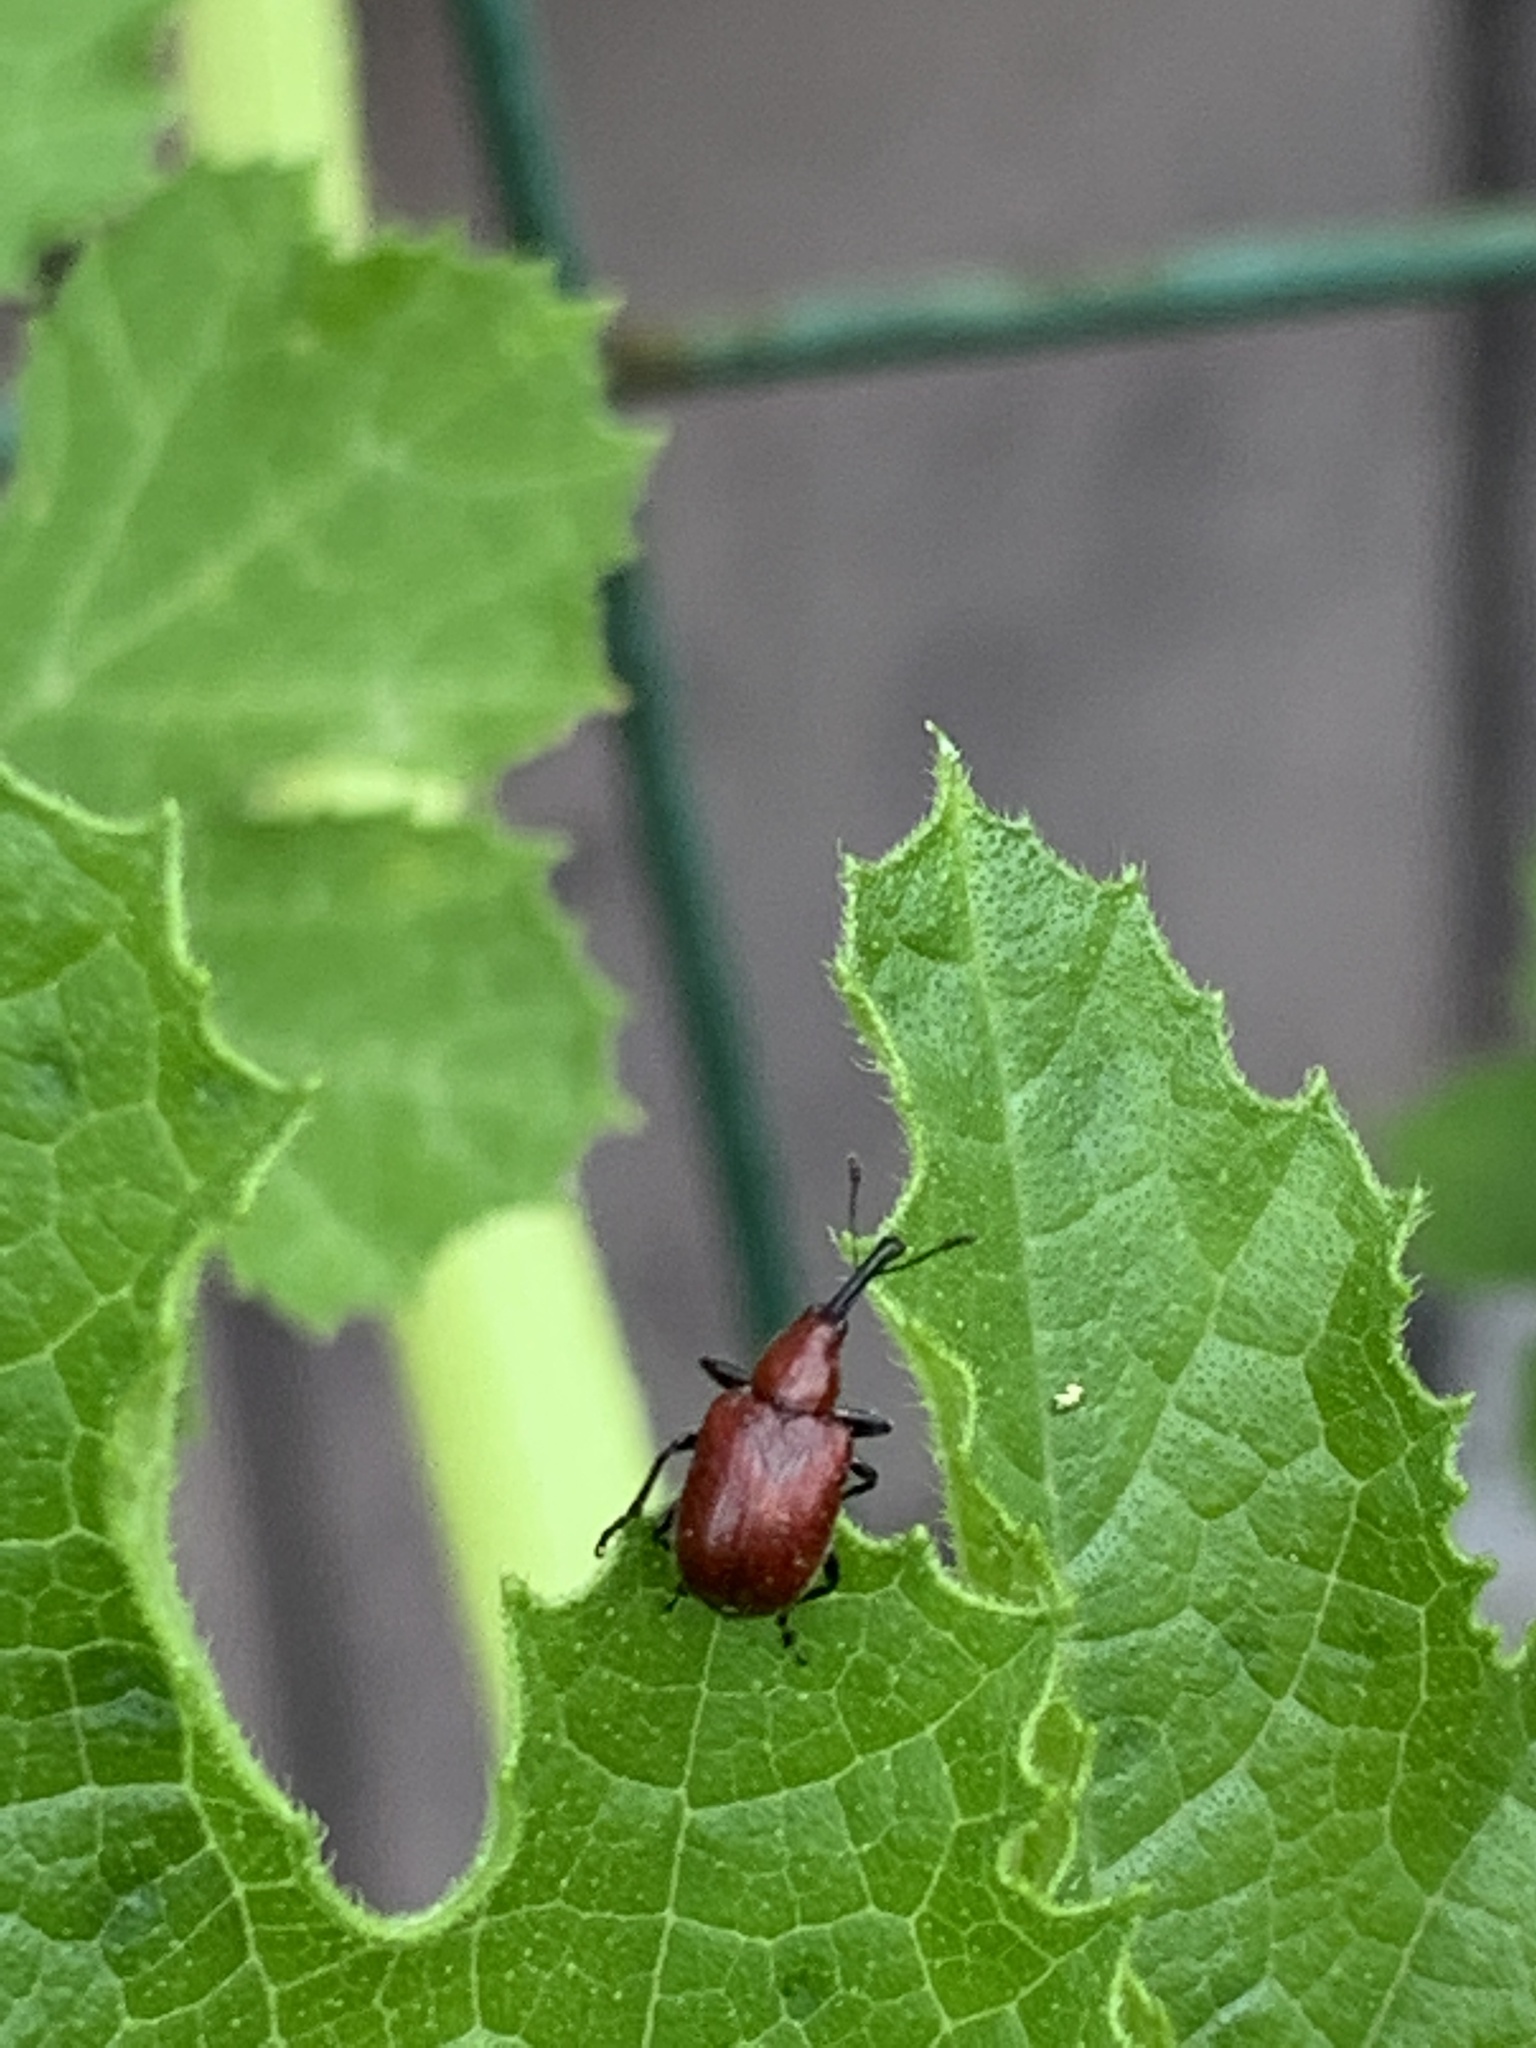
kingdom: Animalia
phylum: Arthropoda
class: Insecta
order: Coleoptera
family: Attelabidae
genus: Merhynchites
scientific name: Merhynchites bicolor
